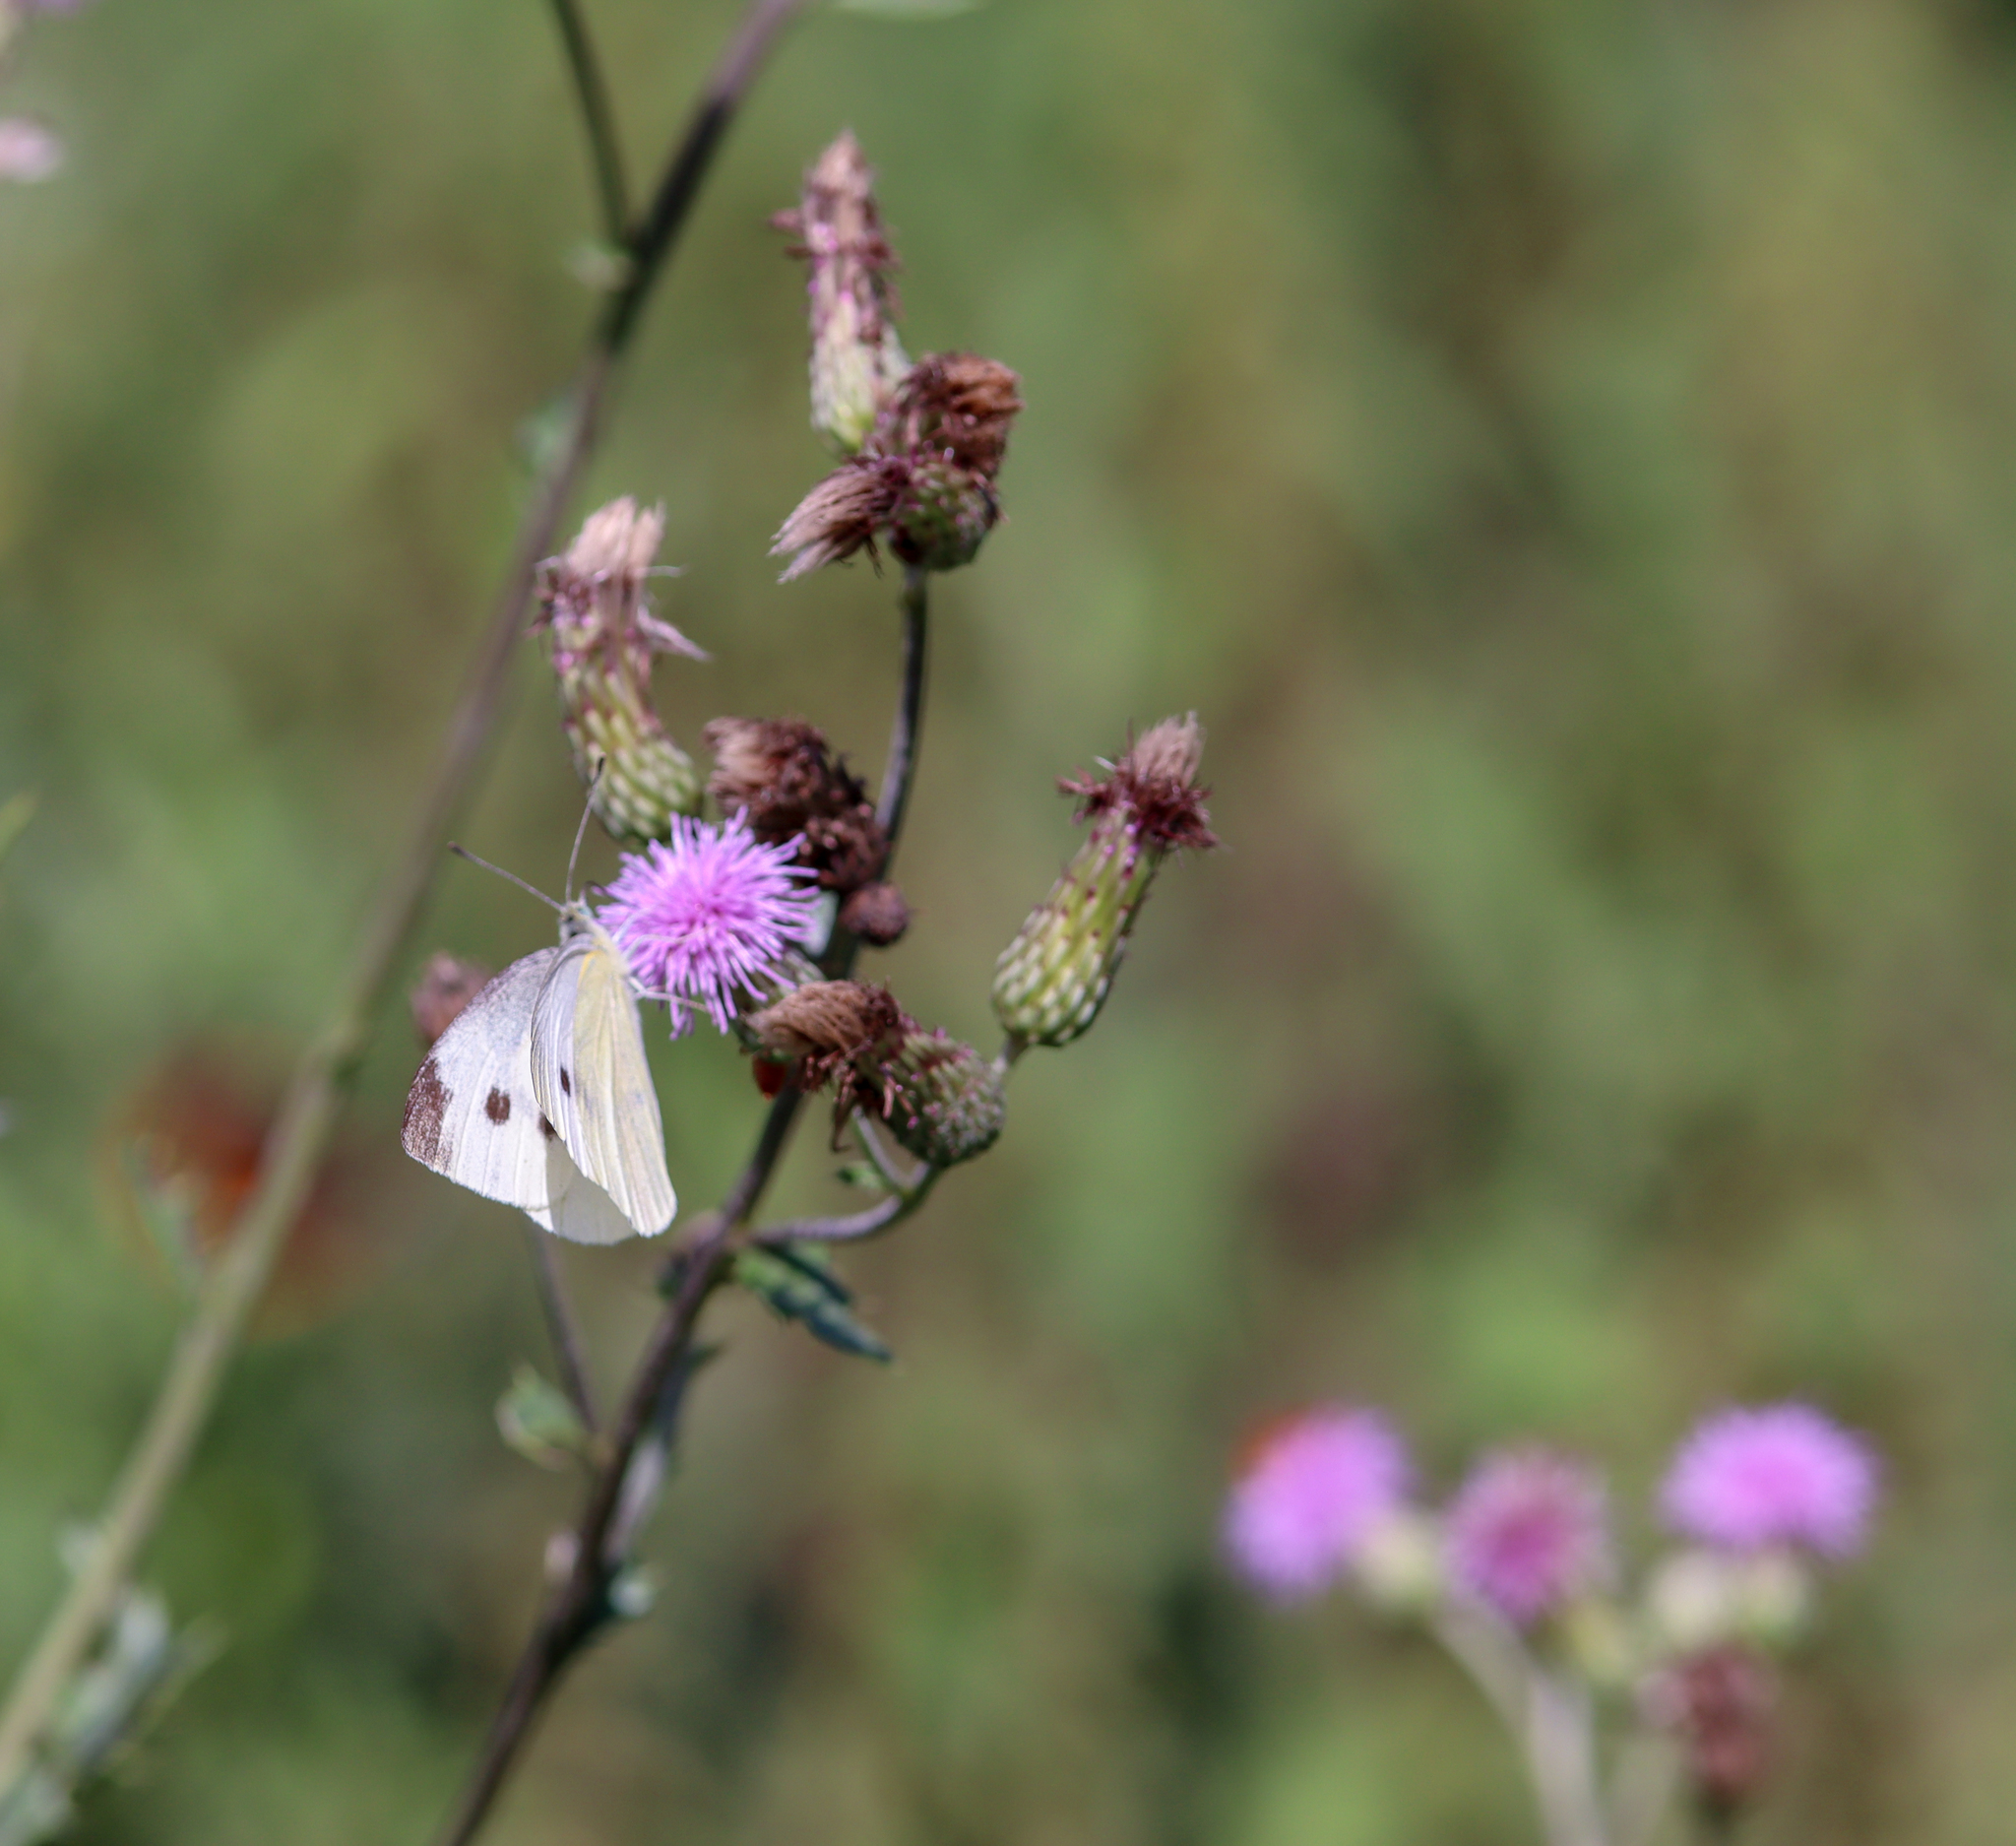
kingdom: Animalia
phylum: Arthropoda
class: Insecta
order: Lepidoptera
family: Pieridae
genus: Pieris
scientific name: Pieris rapae
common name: Small white
